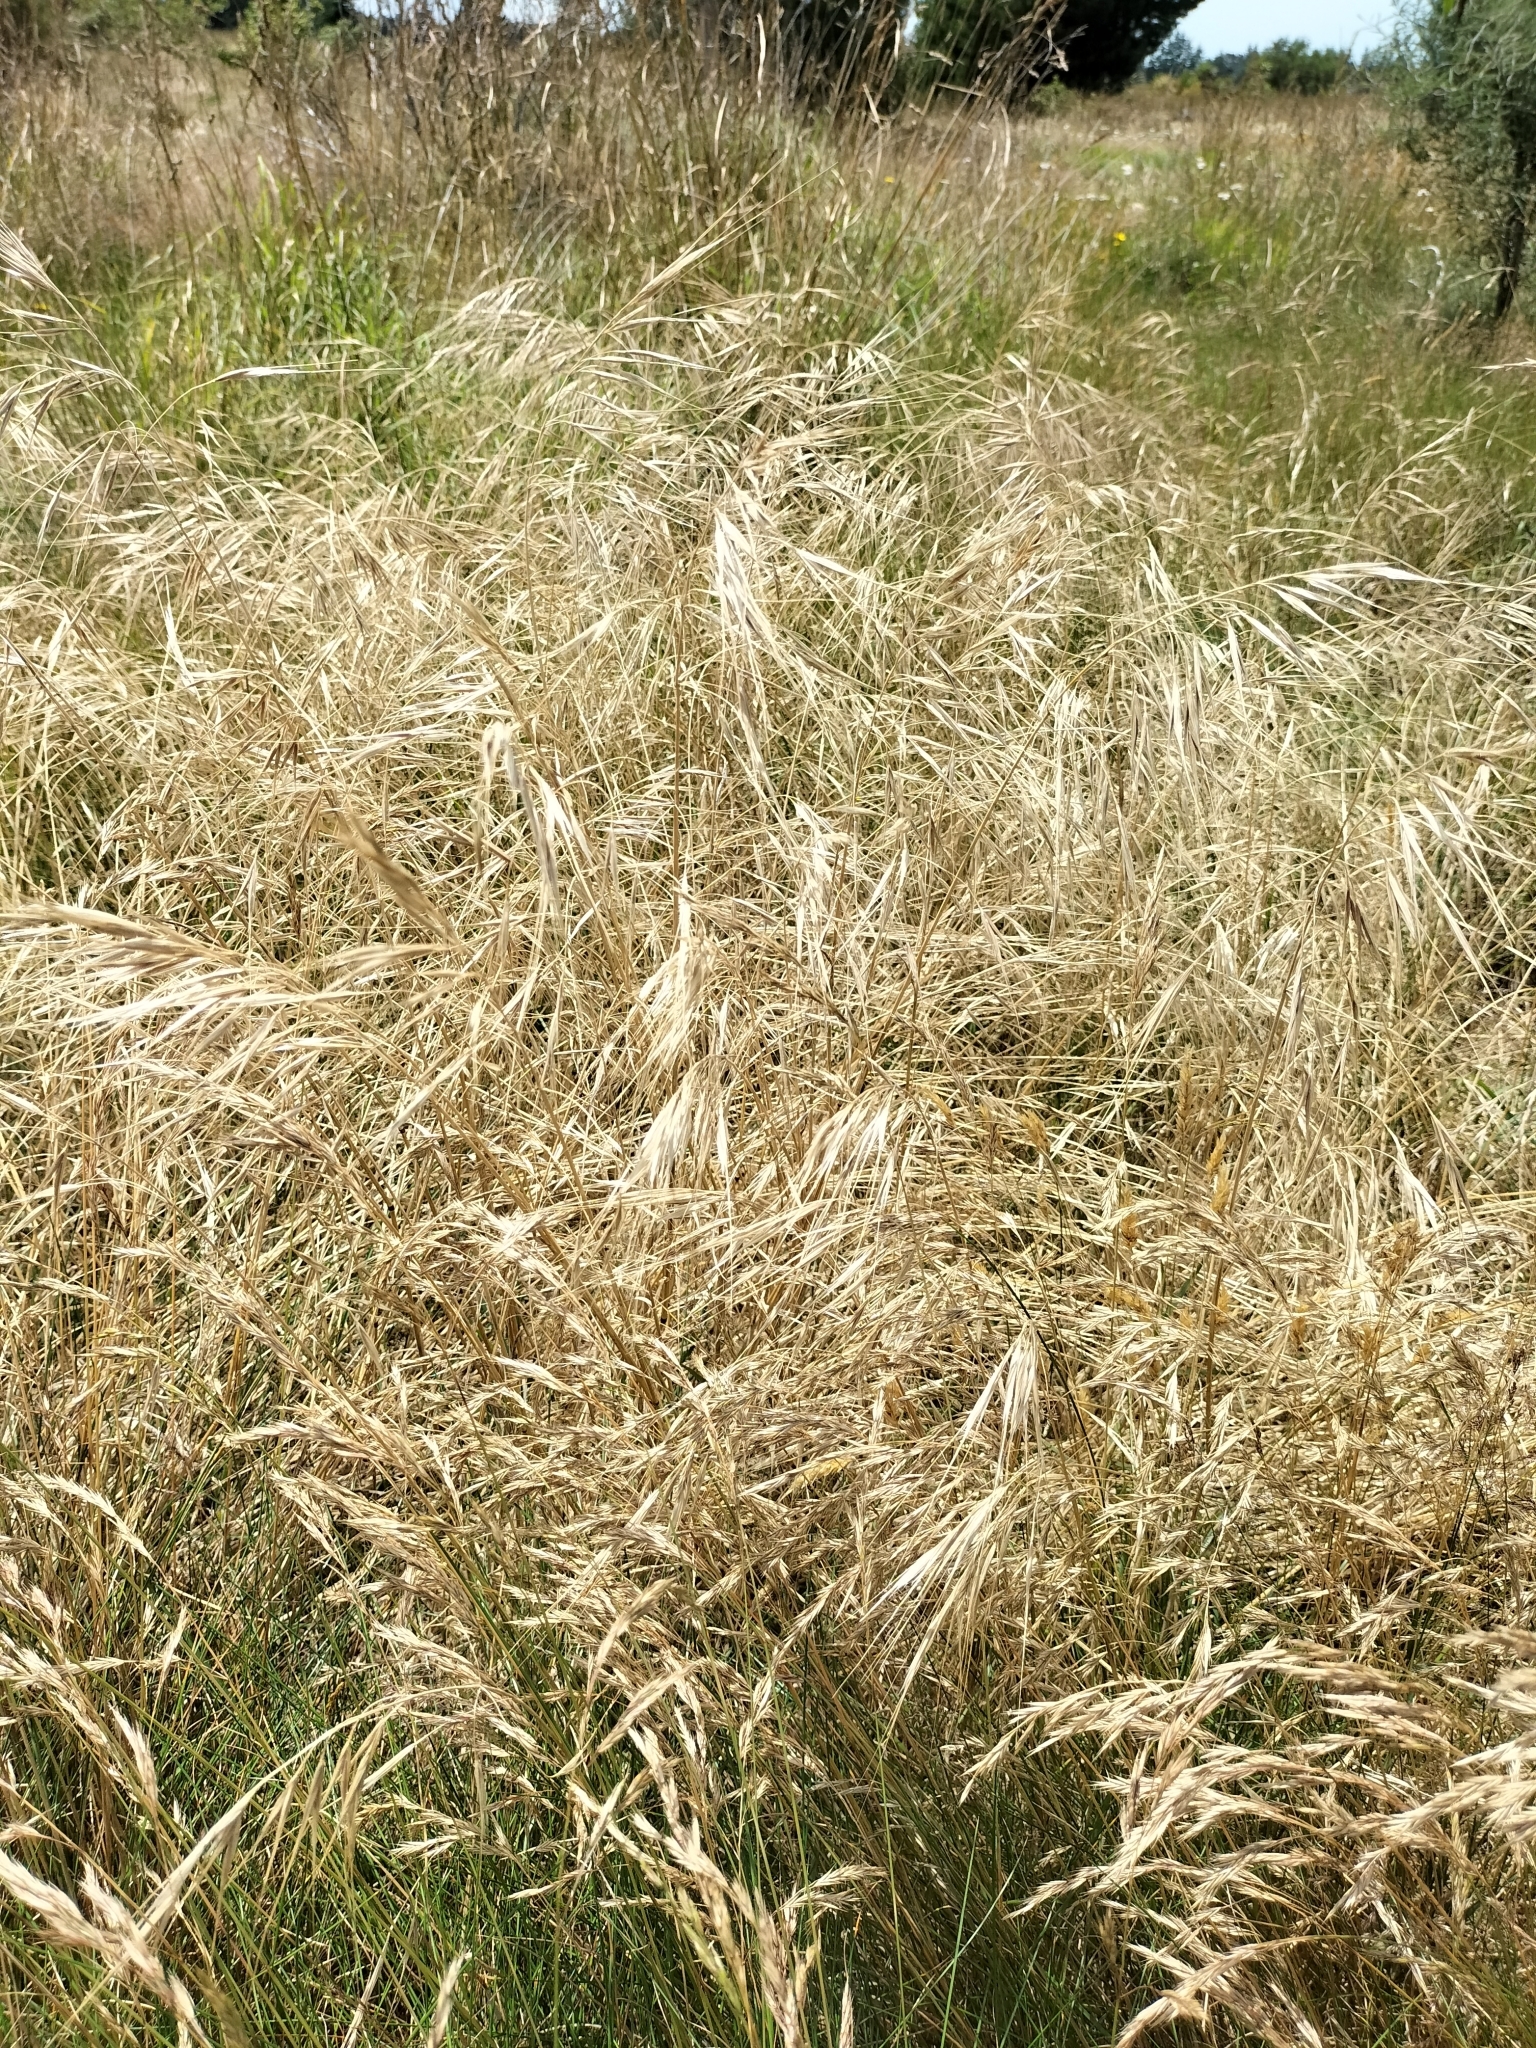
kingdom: Plantae
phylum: Tracheophyta
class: Liliopsida
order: Poales
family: Poaceae
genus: Bromus
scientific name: Bromus diandrus
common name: Ripgut brome
